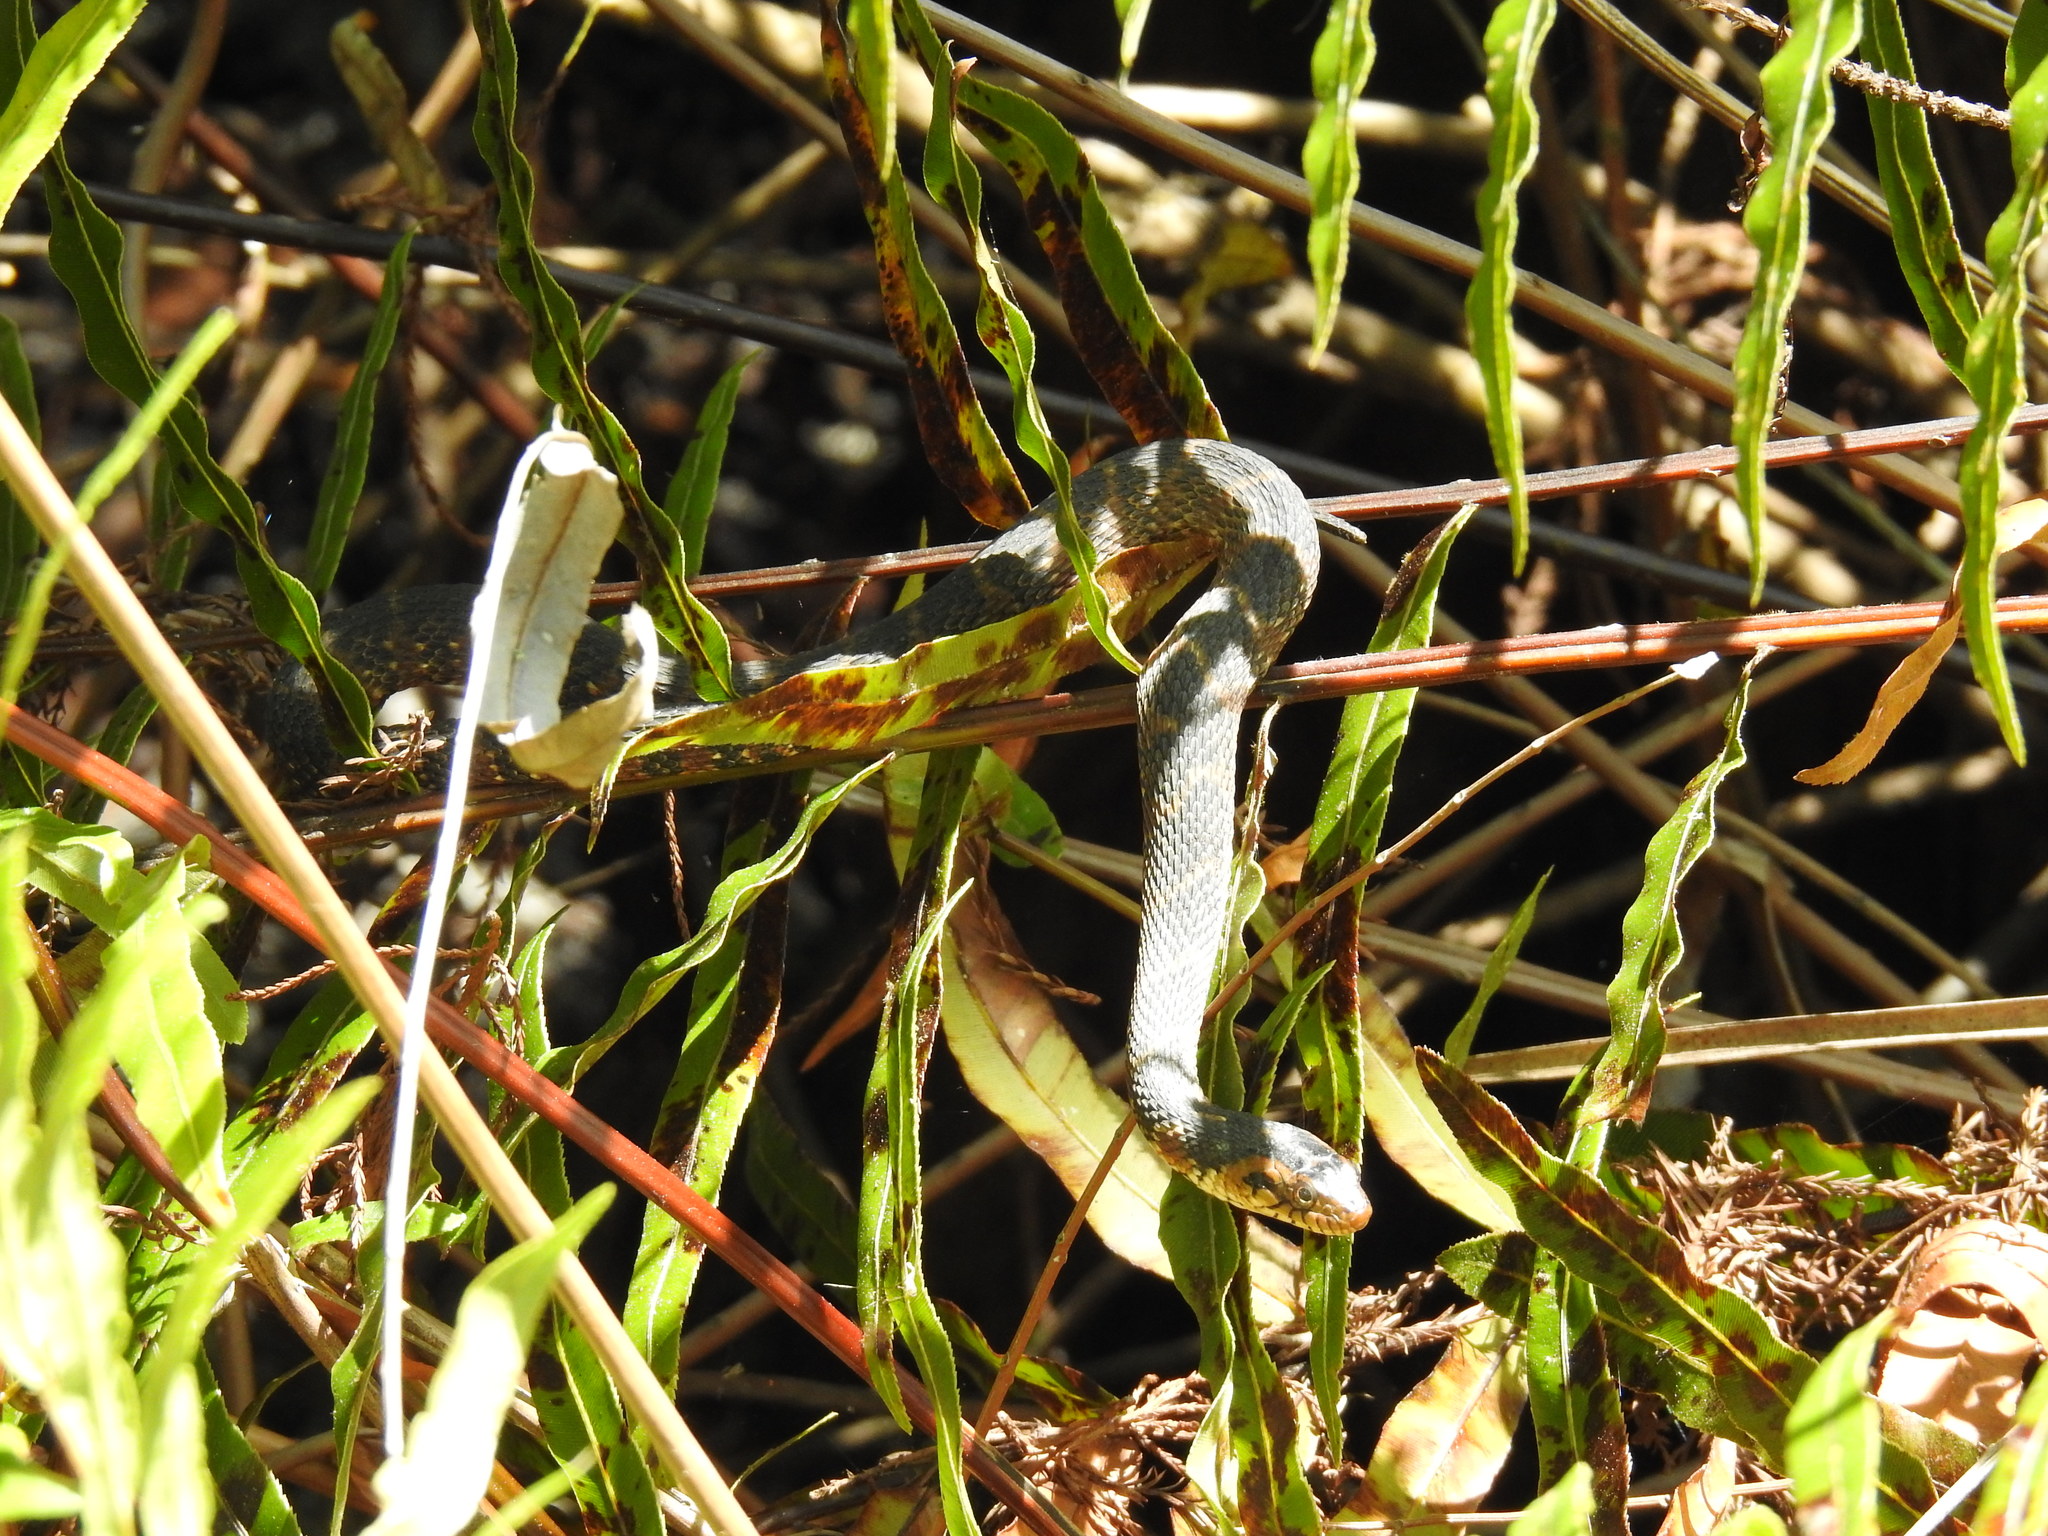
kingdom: Animalia
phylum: Chordata
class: Squamata
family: Colubridae
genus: Nerodia
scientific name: Nerodia fasciata
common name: Southern water snake
